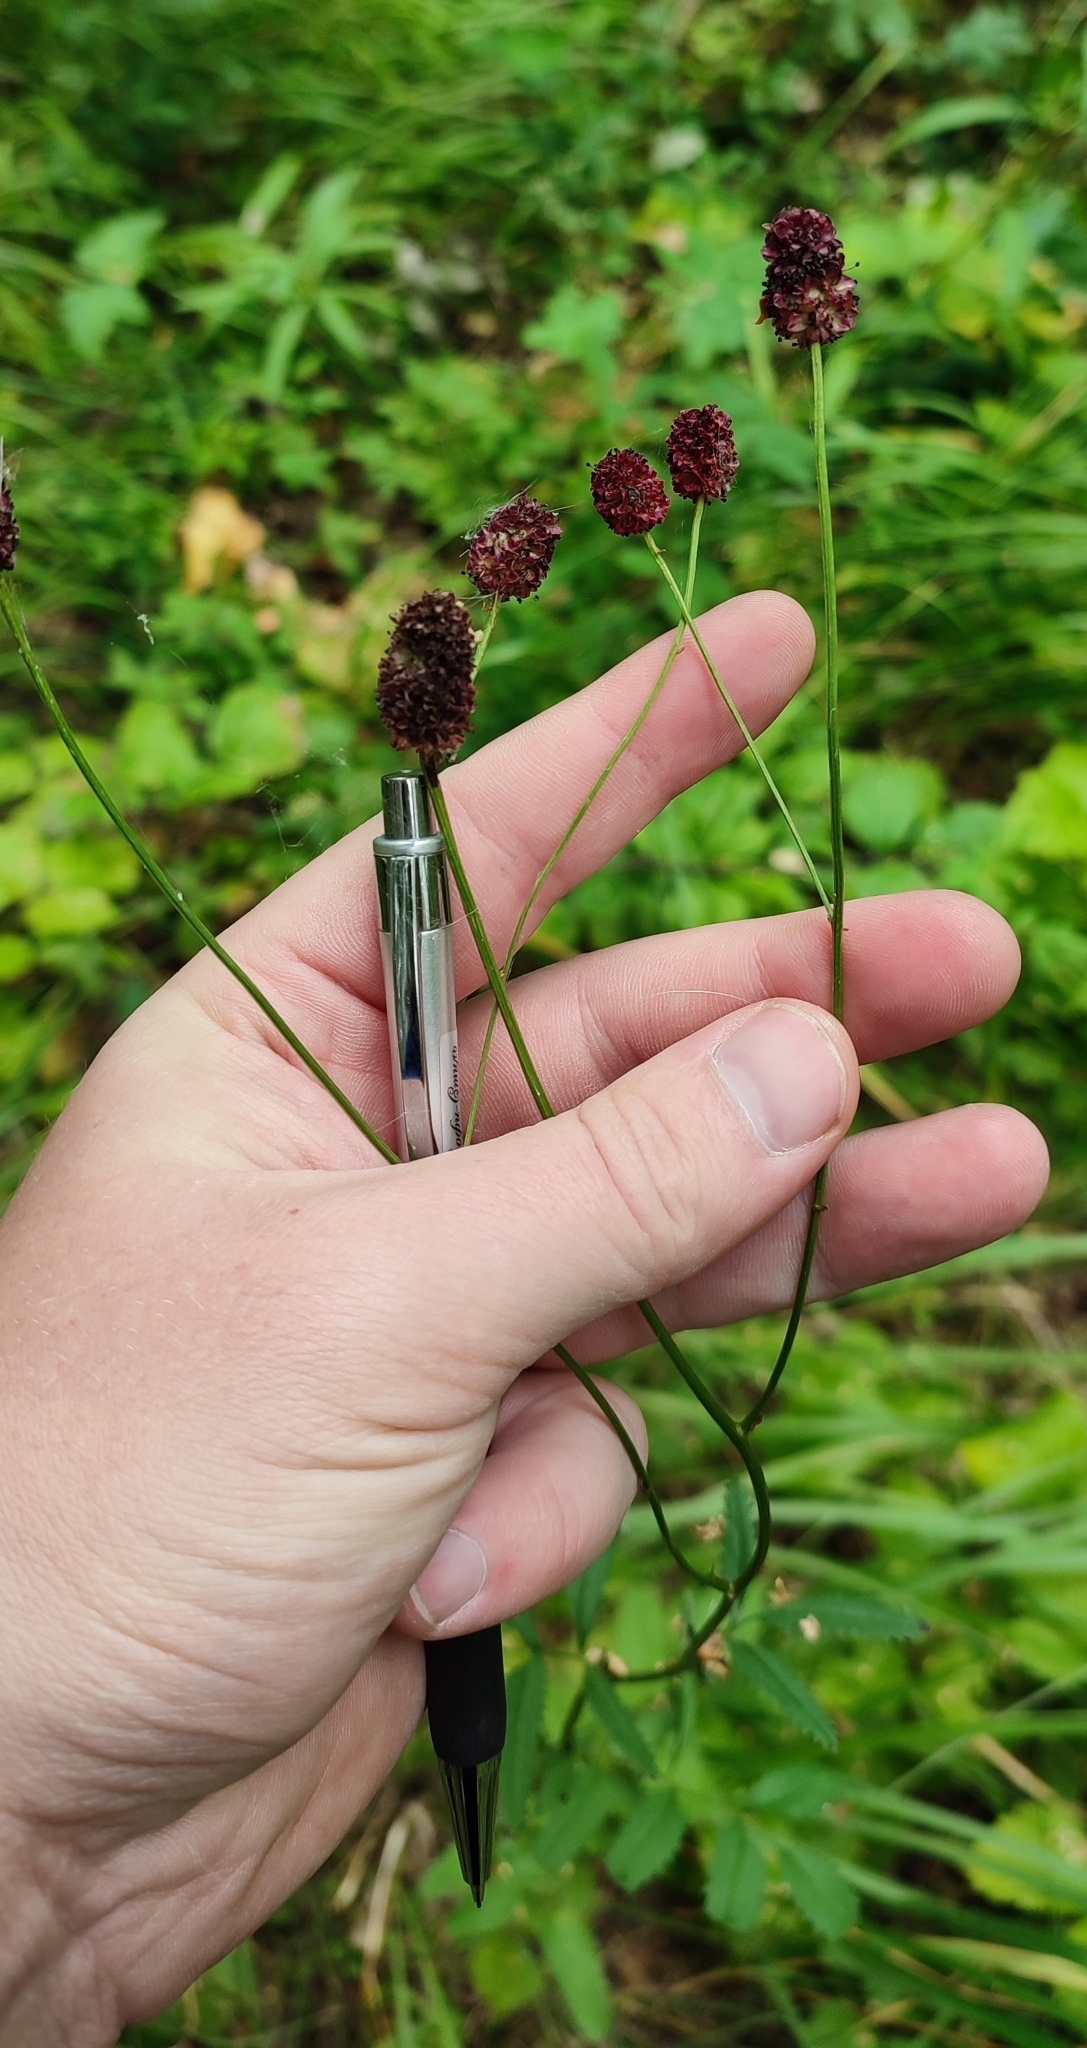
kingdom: Plantae
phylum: Tracheophyta
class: Magnoliopsida
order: Rosales
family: Rosaceae
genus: Sanguisorba
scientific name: Sanguisorba officinalis
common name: Great burnet
